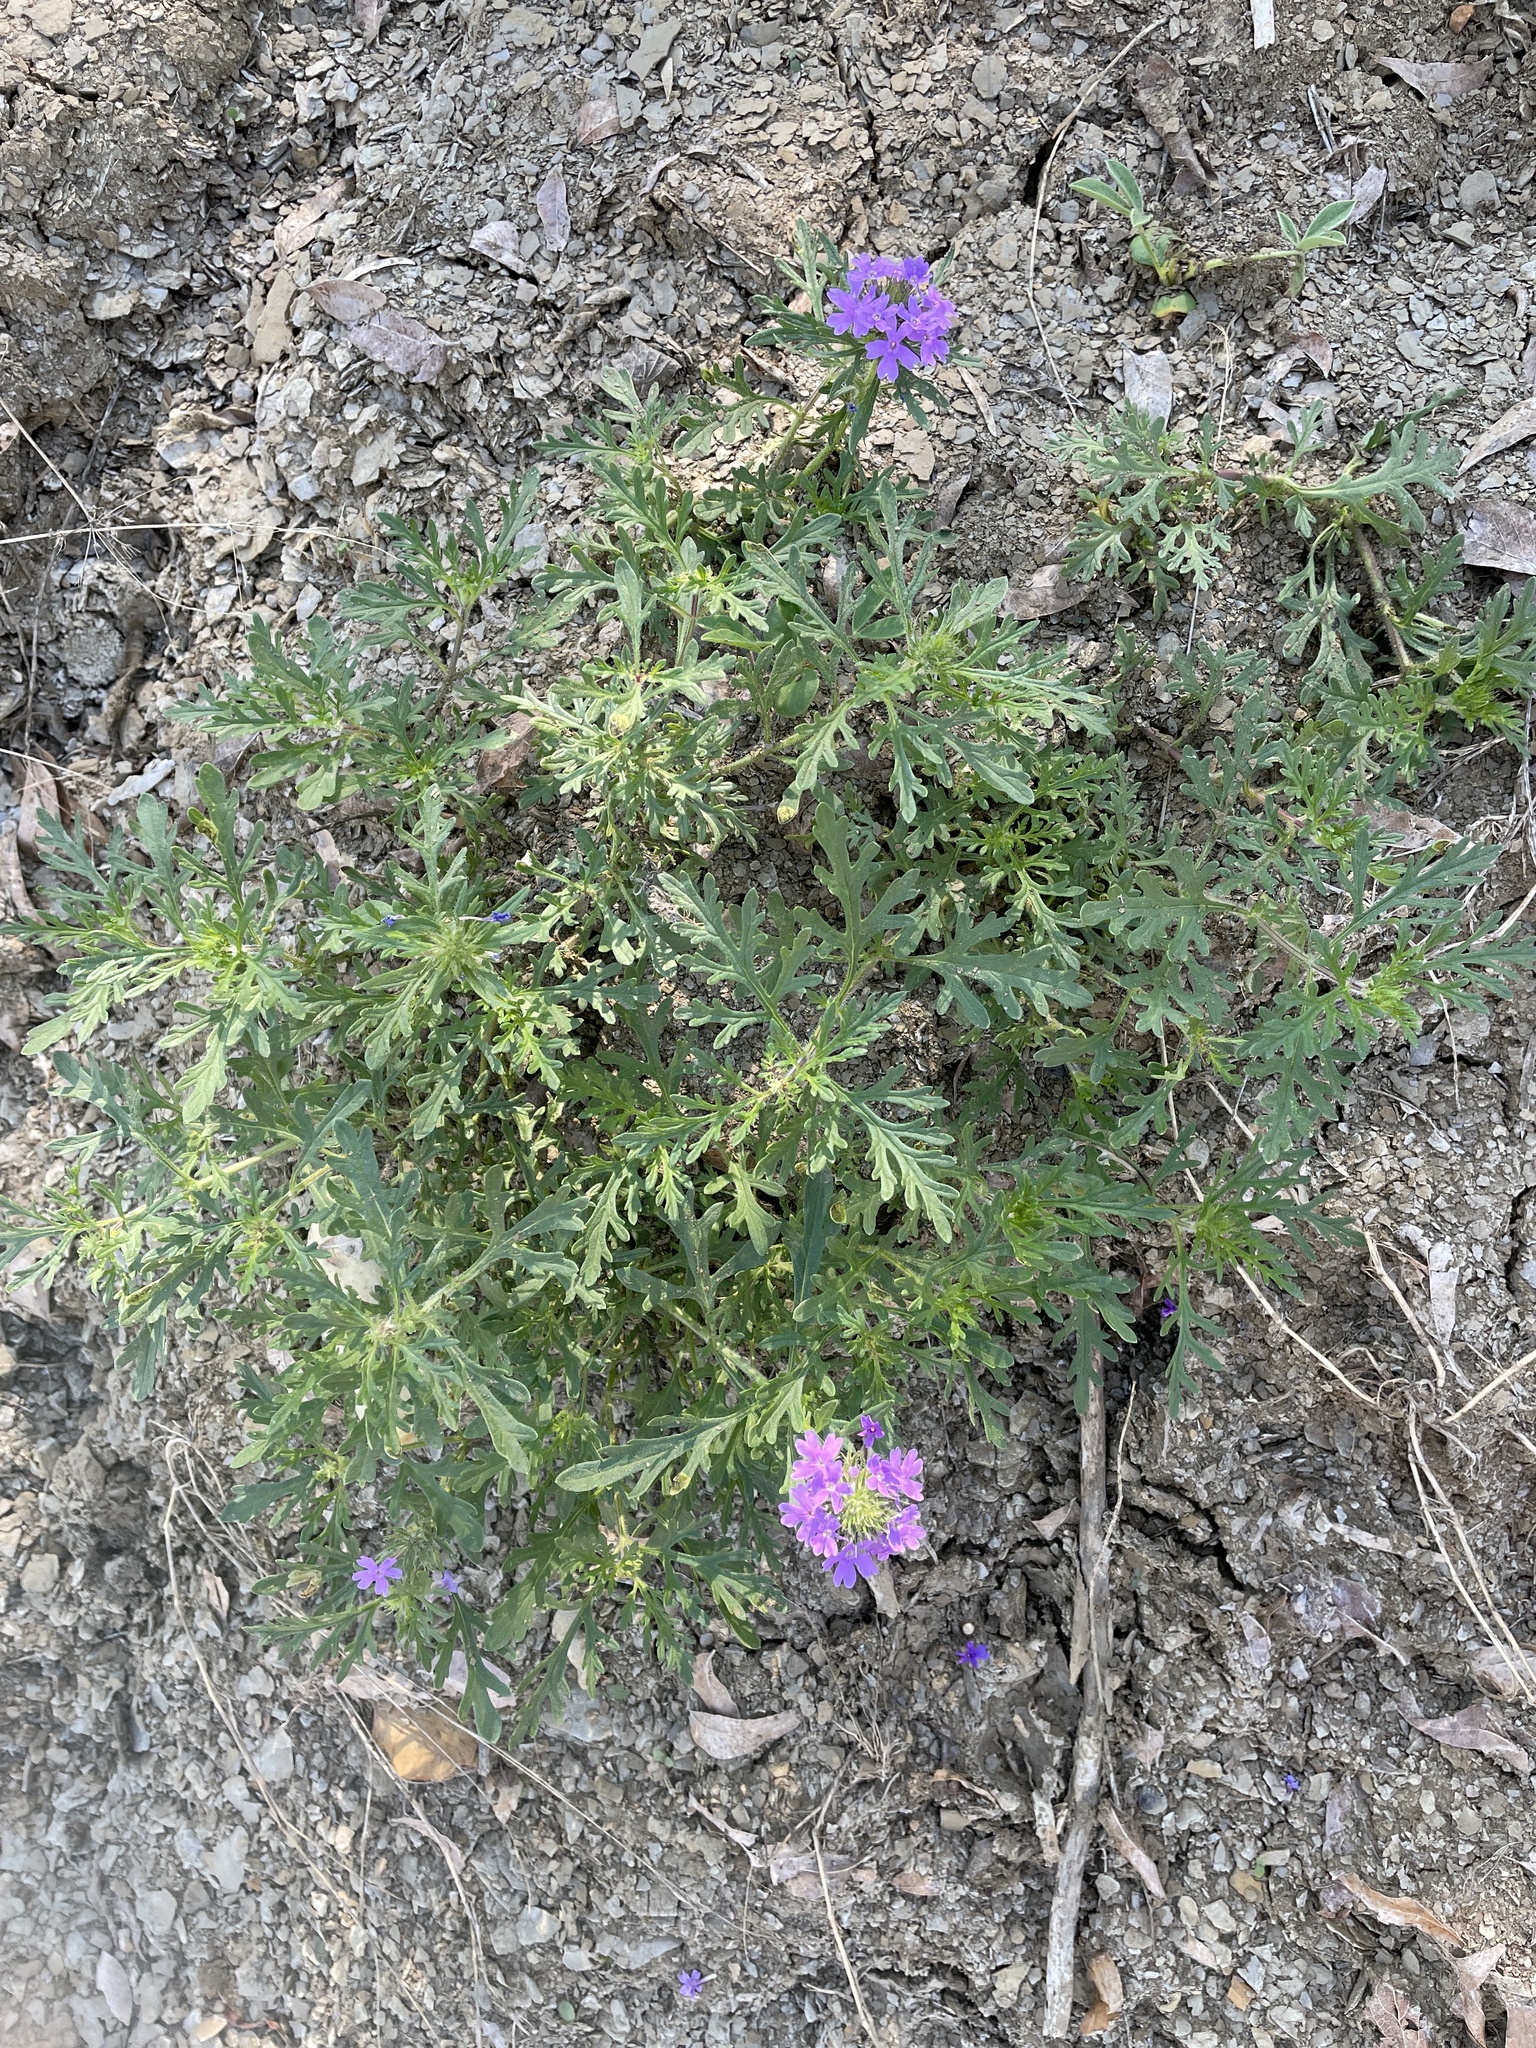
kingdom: Plantae
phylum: Tracheophyta
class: Magnoliopsida
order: Lamiales
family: Verbenaceae
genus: Verbena
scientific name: Verbena bipinnatifida
